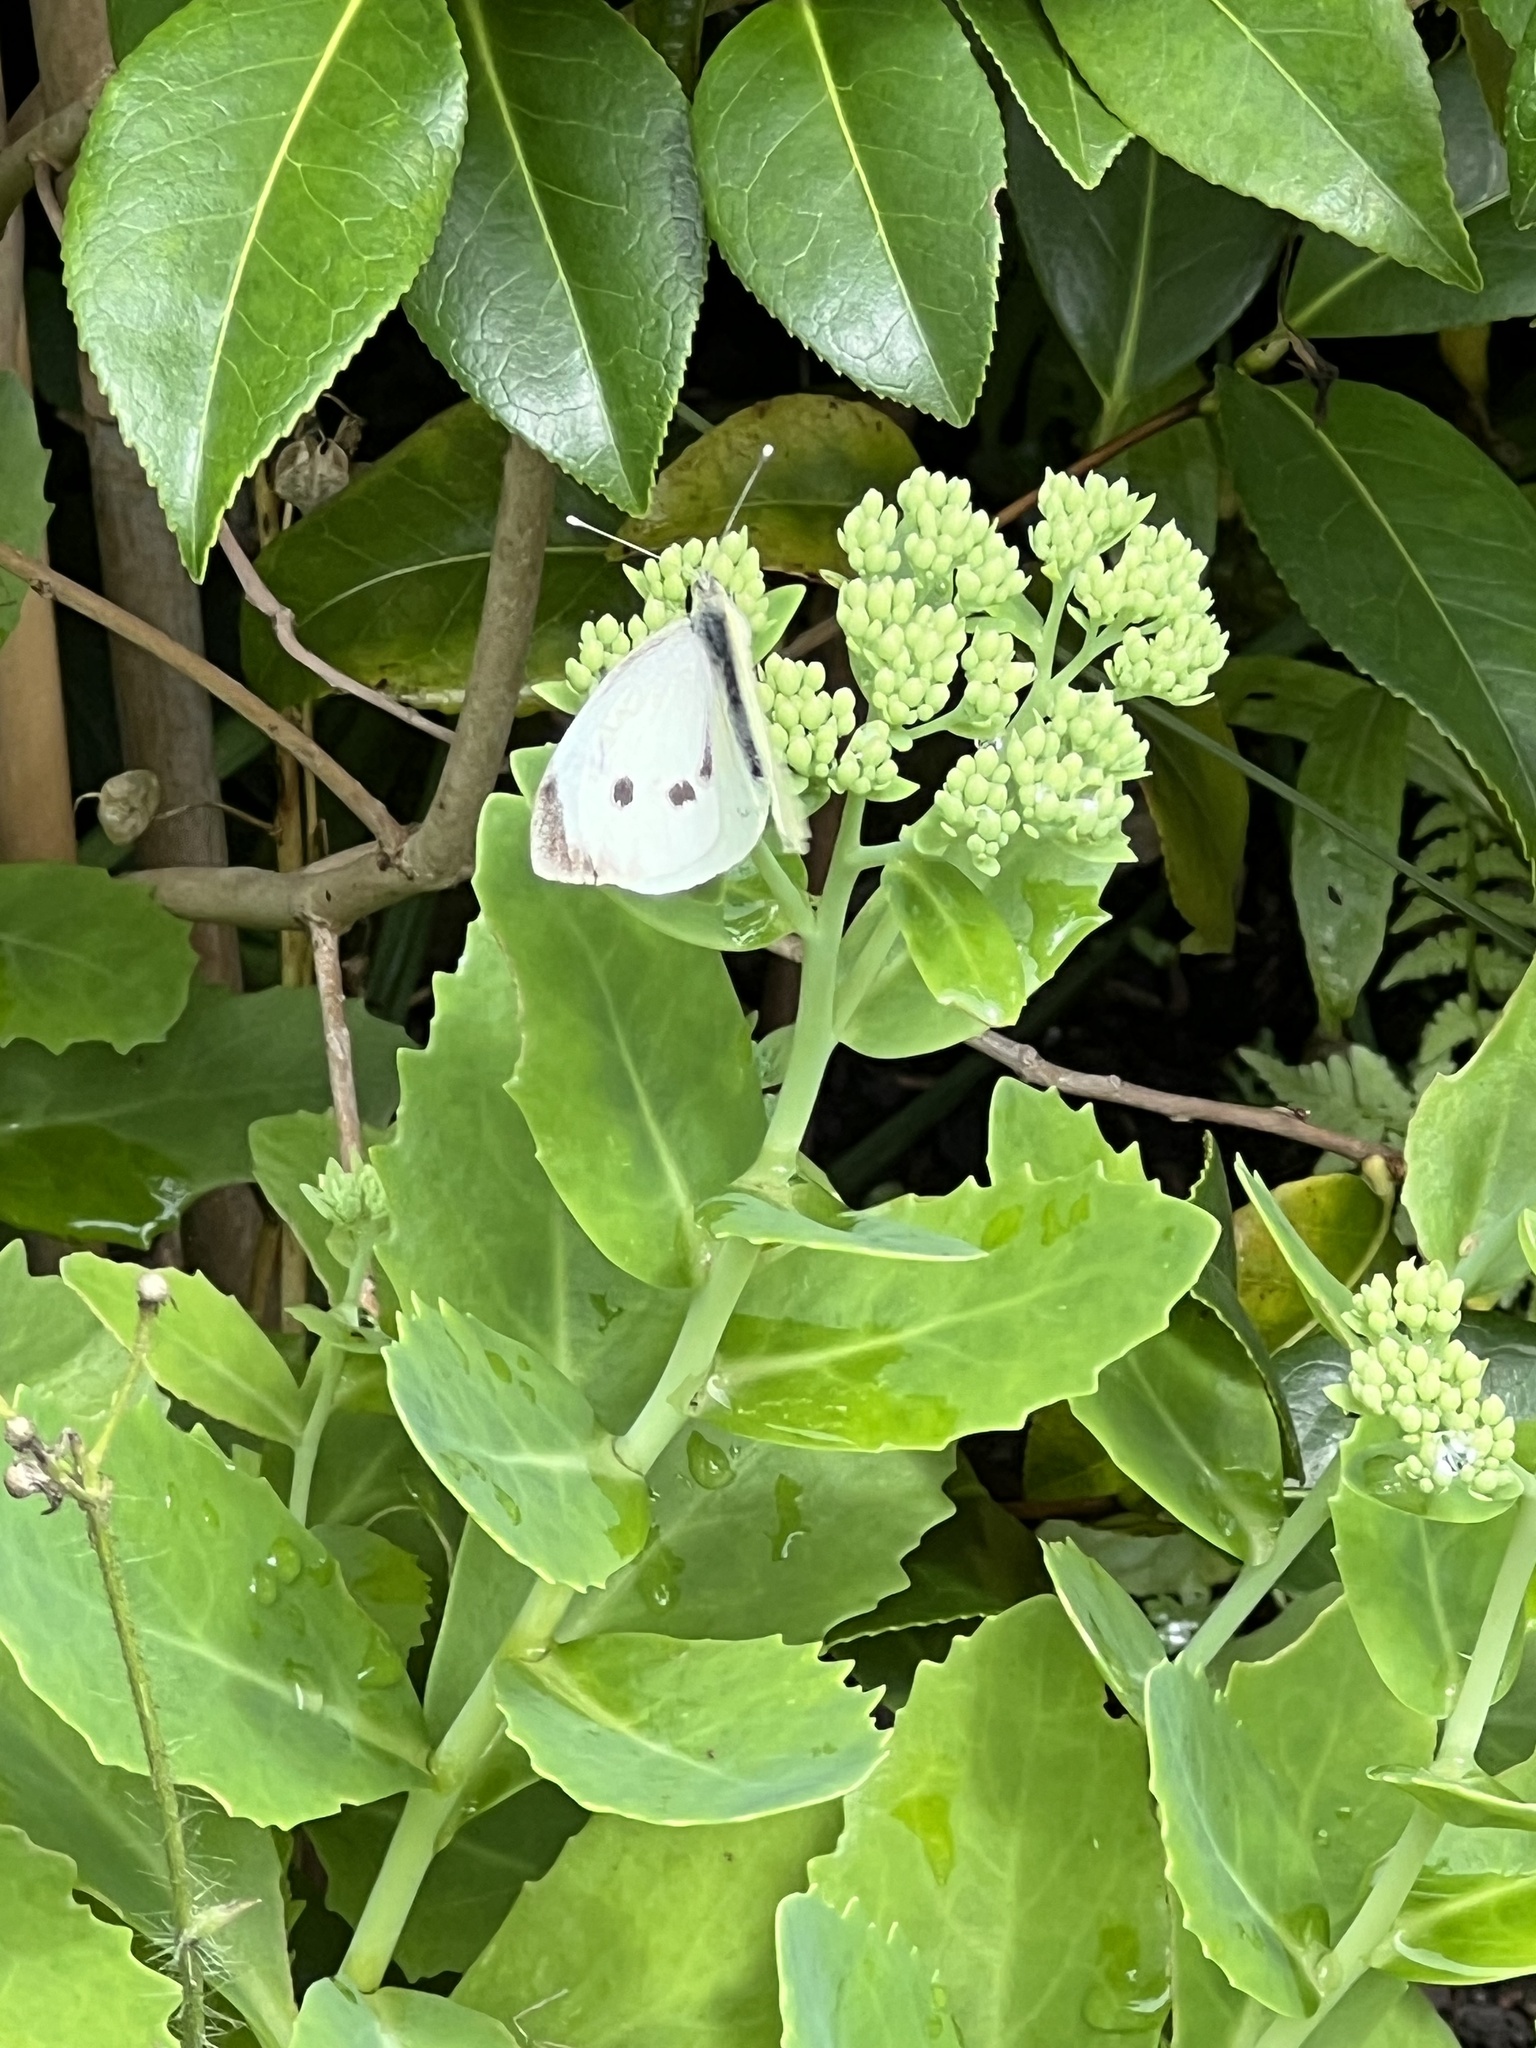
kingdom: Animalia
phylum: Arthropoda
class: Insecta
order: Lepidoptera
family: Pieridae
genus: Pieris
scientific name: Pieris brassicae
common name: Large white
